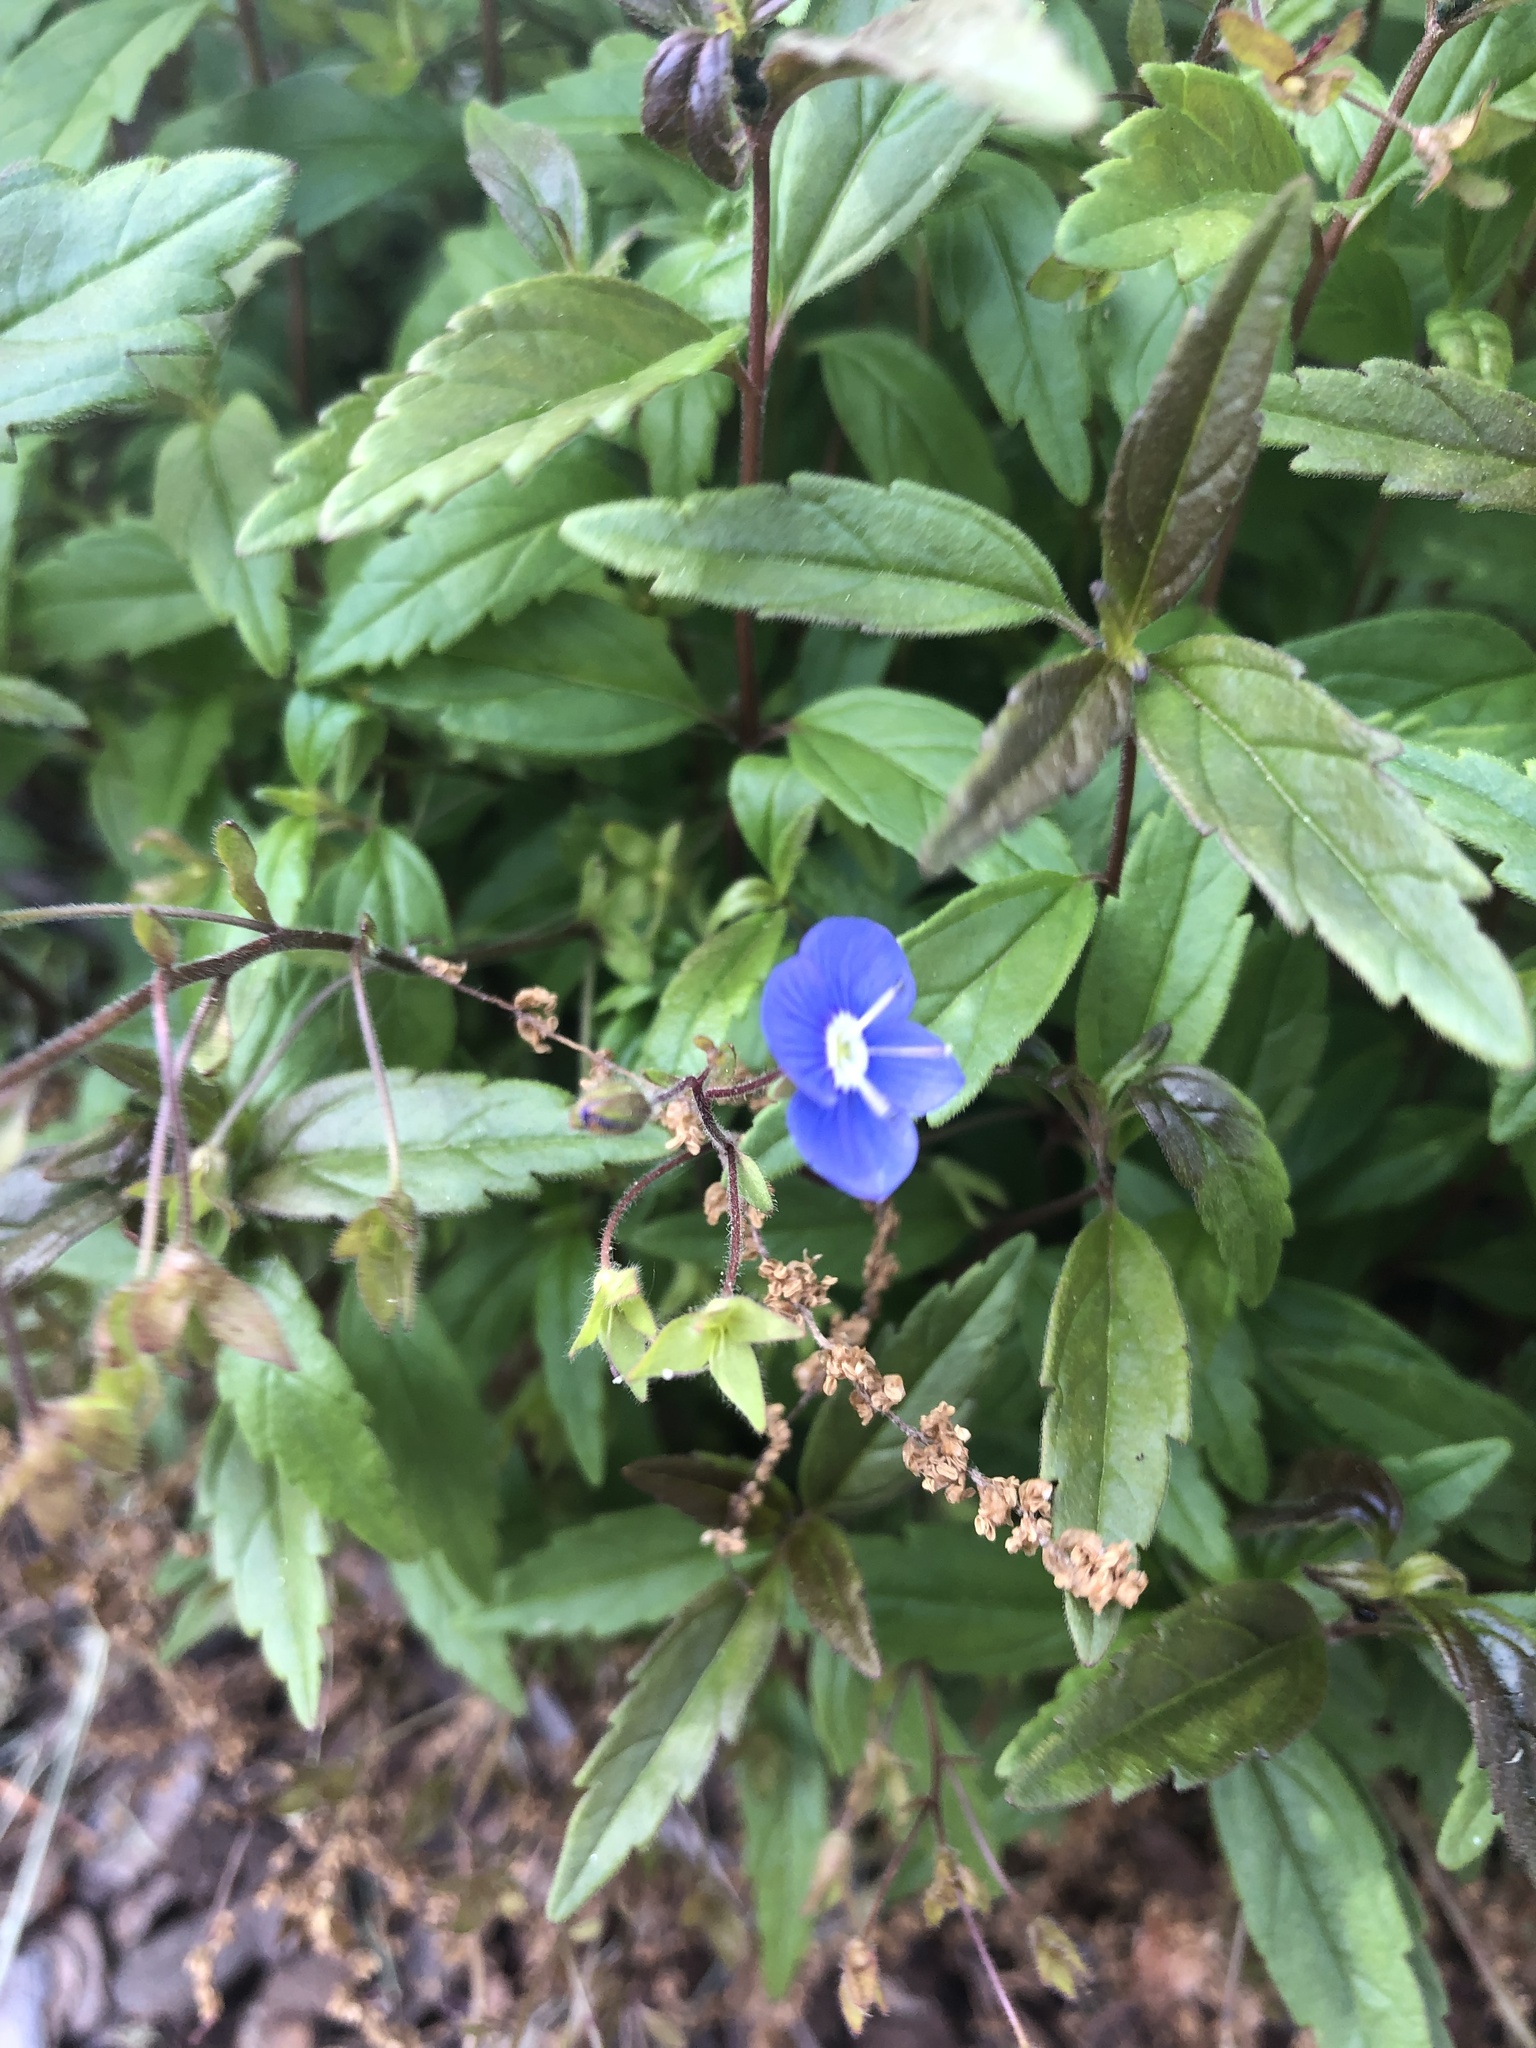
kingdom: Plantae
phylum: Tracheophyta
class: Magnoliopsida
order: Lamiales
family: Plantaginaceae
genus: Veronica
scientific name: Veronica
